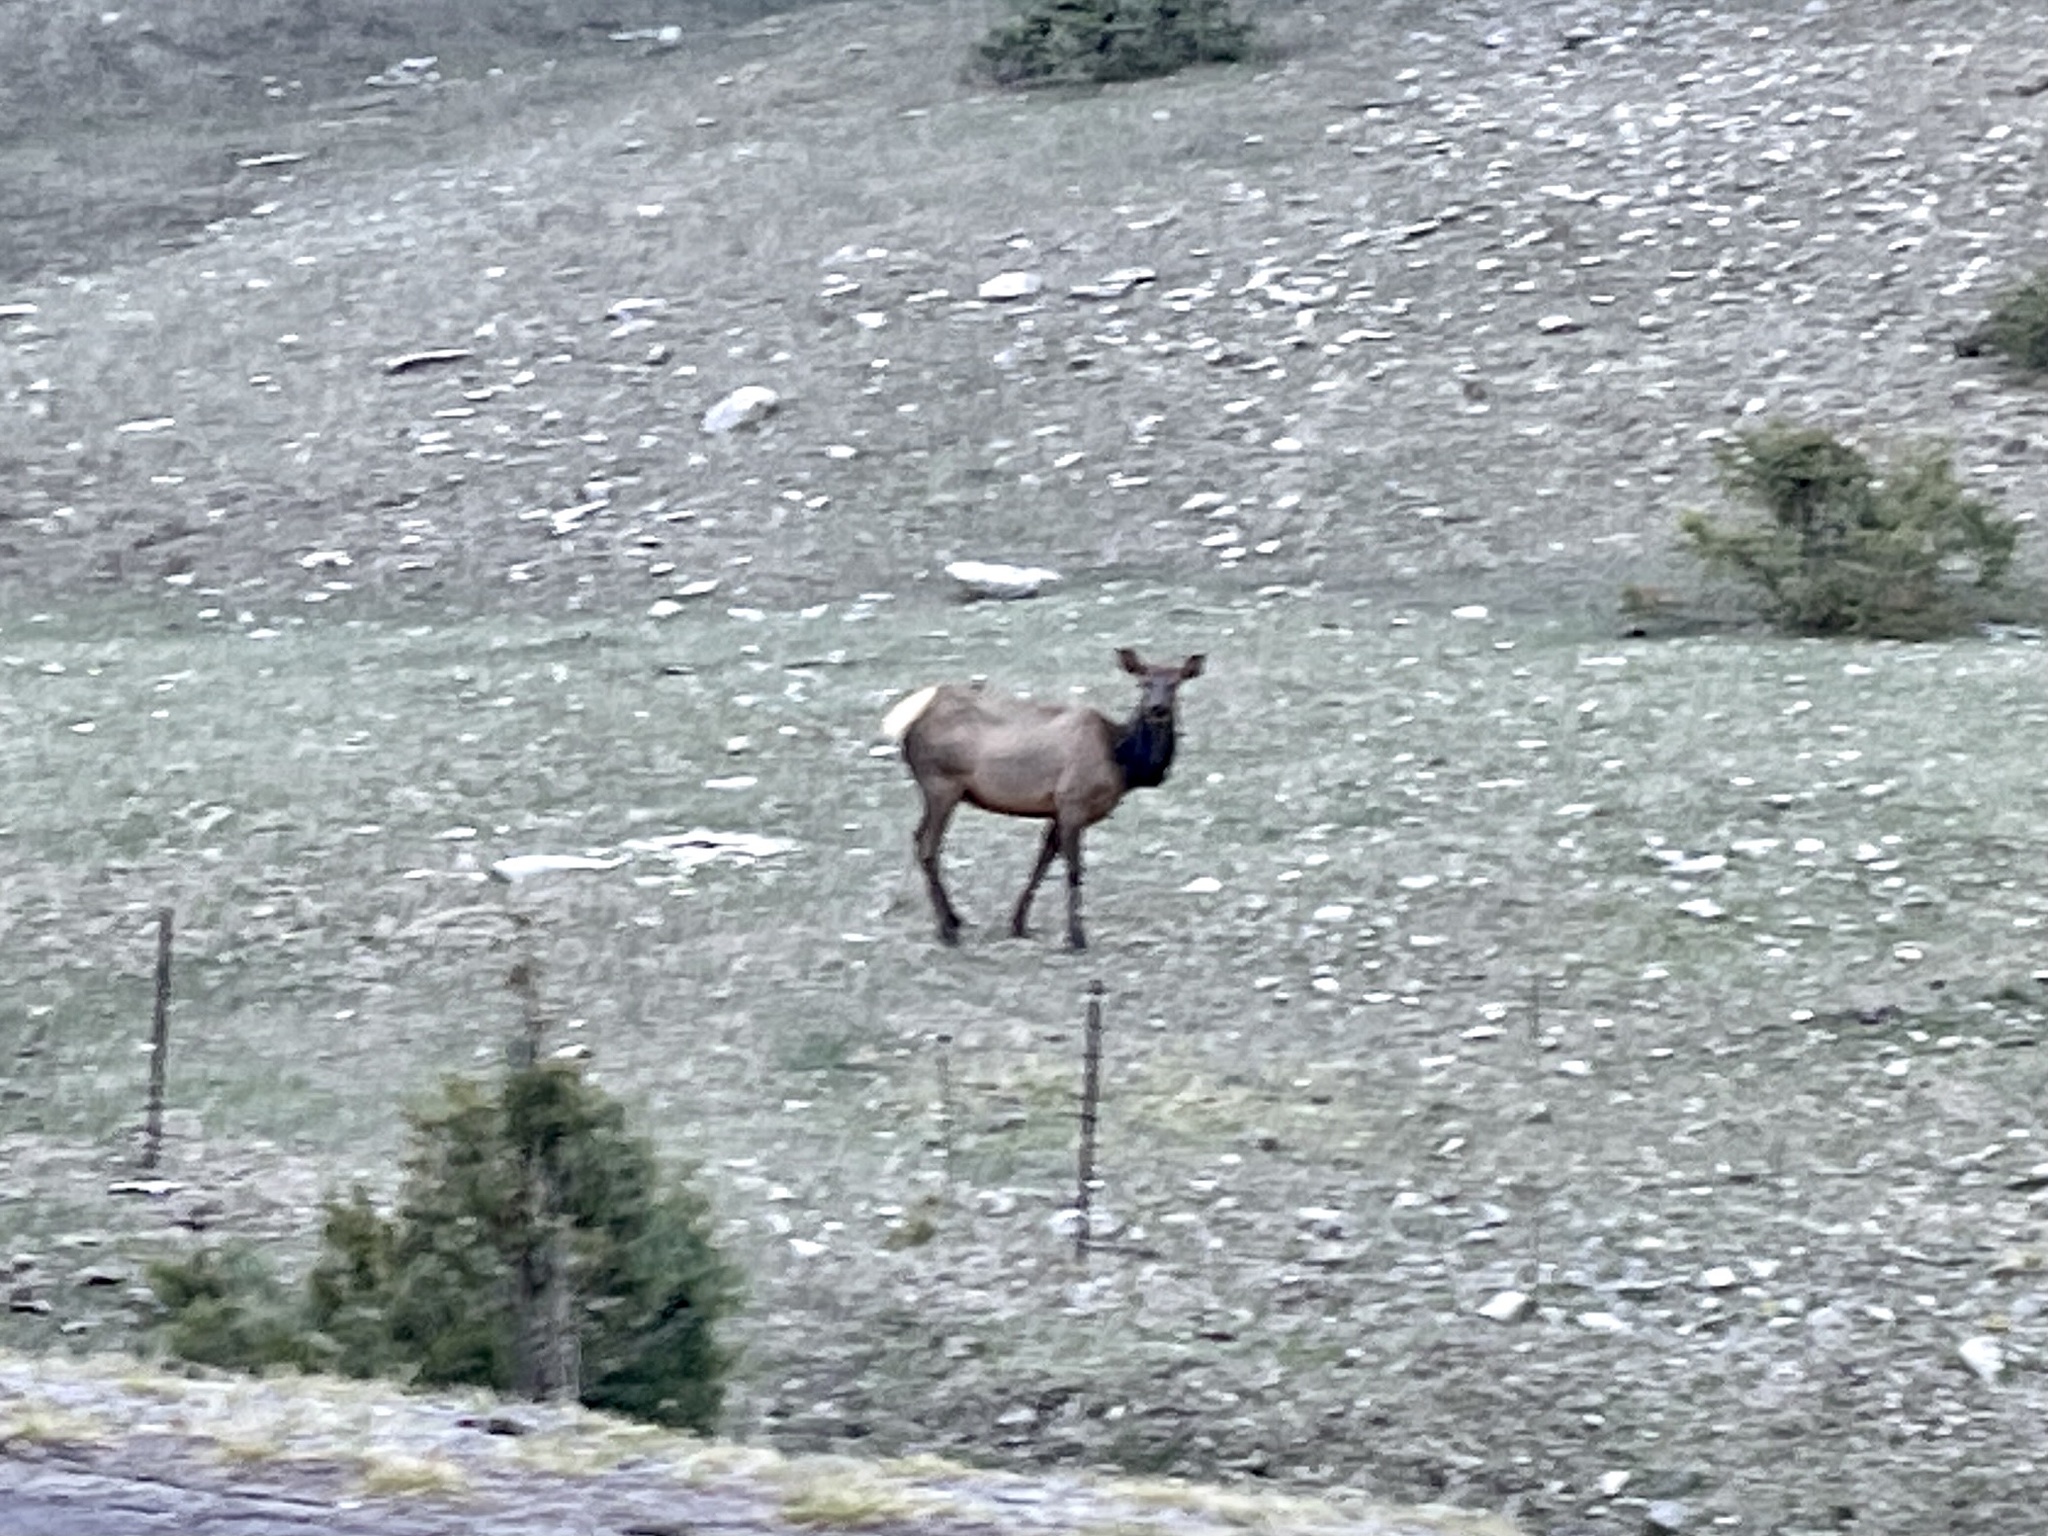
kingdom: Animalia
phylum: Chordata
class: Mammalia
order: Artiodactyla
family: Cervidae
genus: Cervus
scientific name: Cervus elaphus
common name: Red deer
